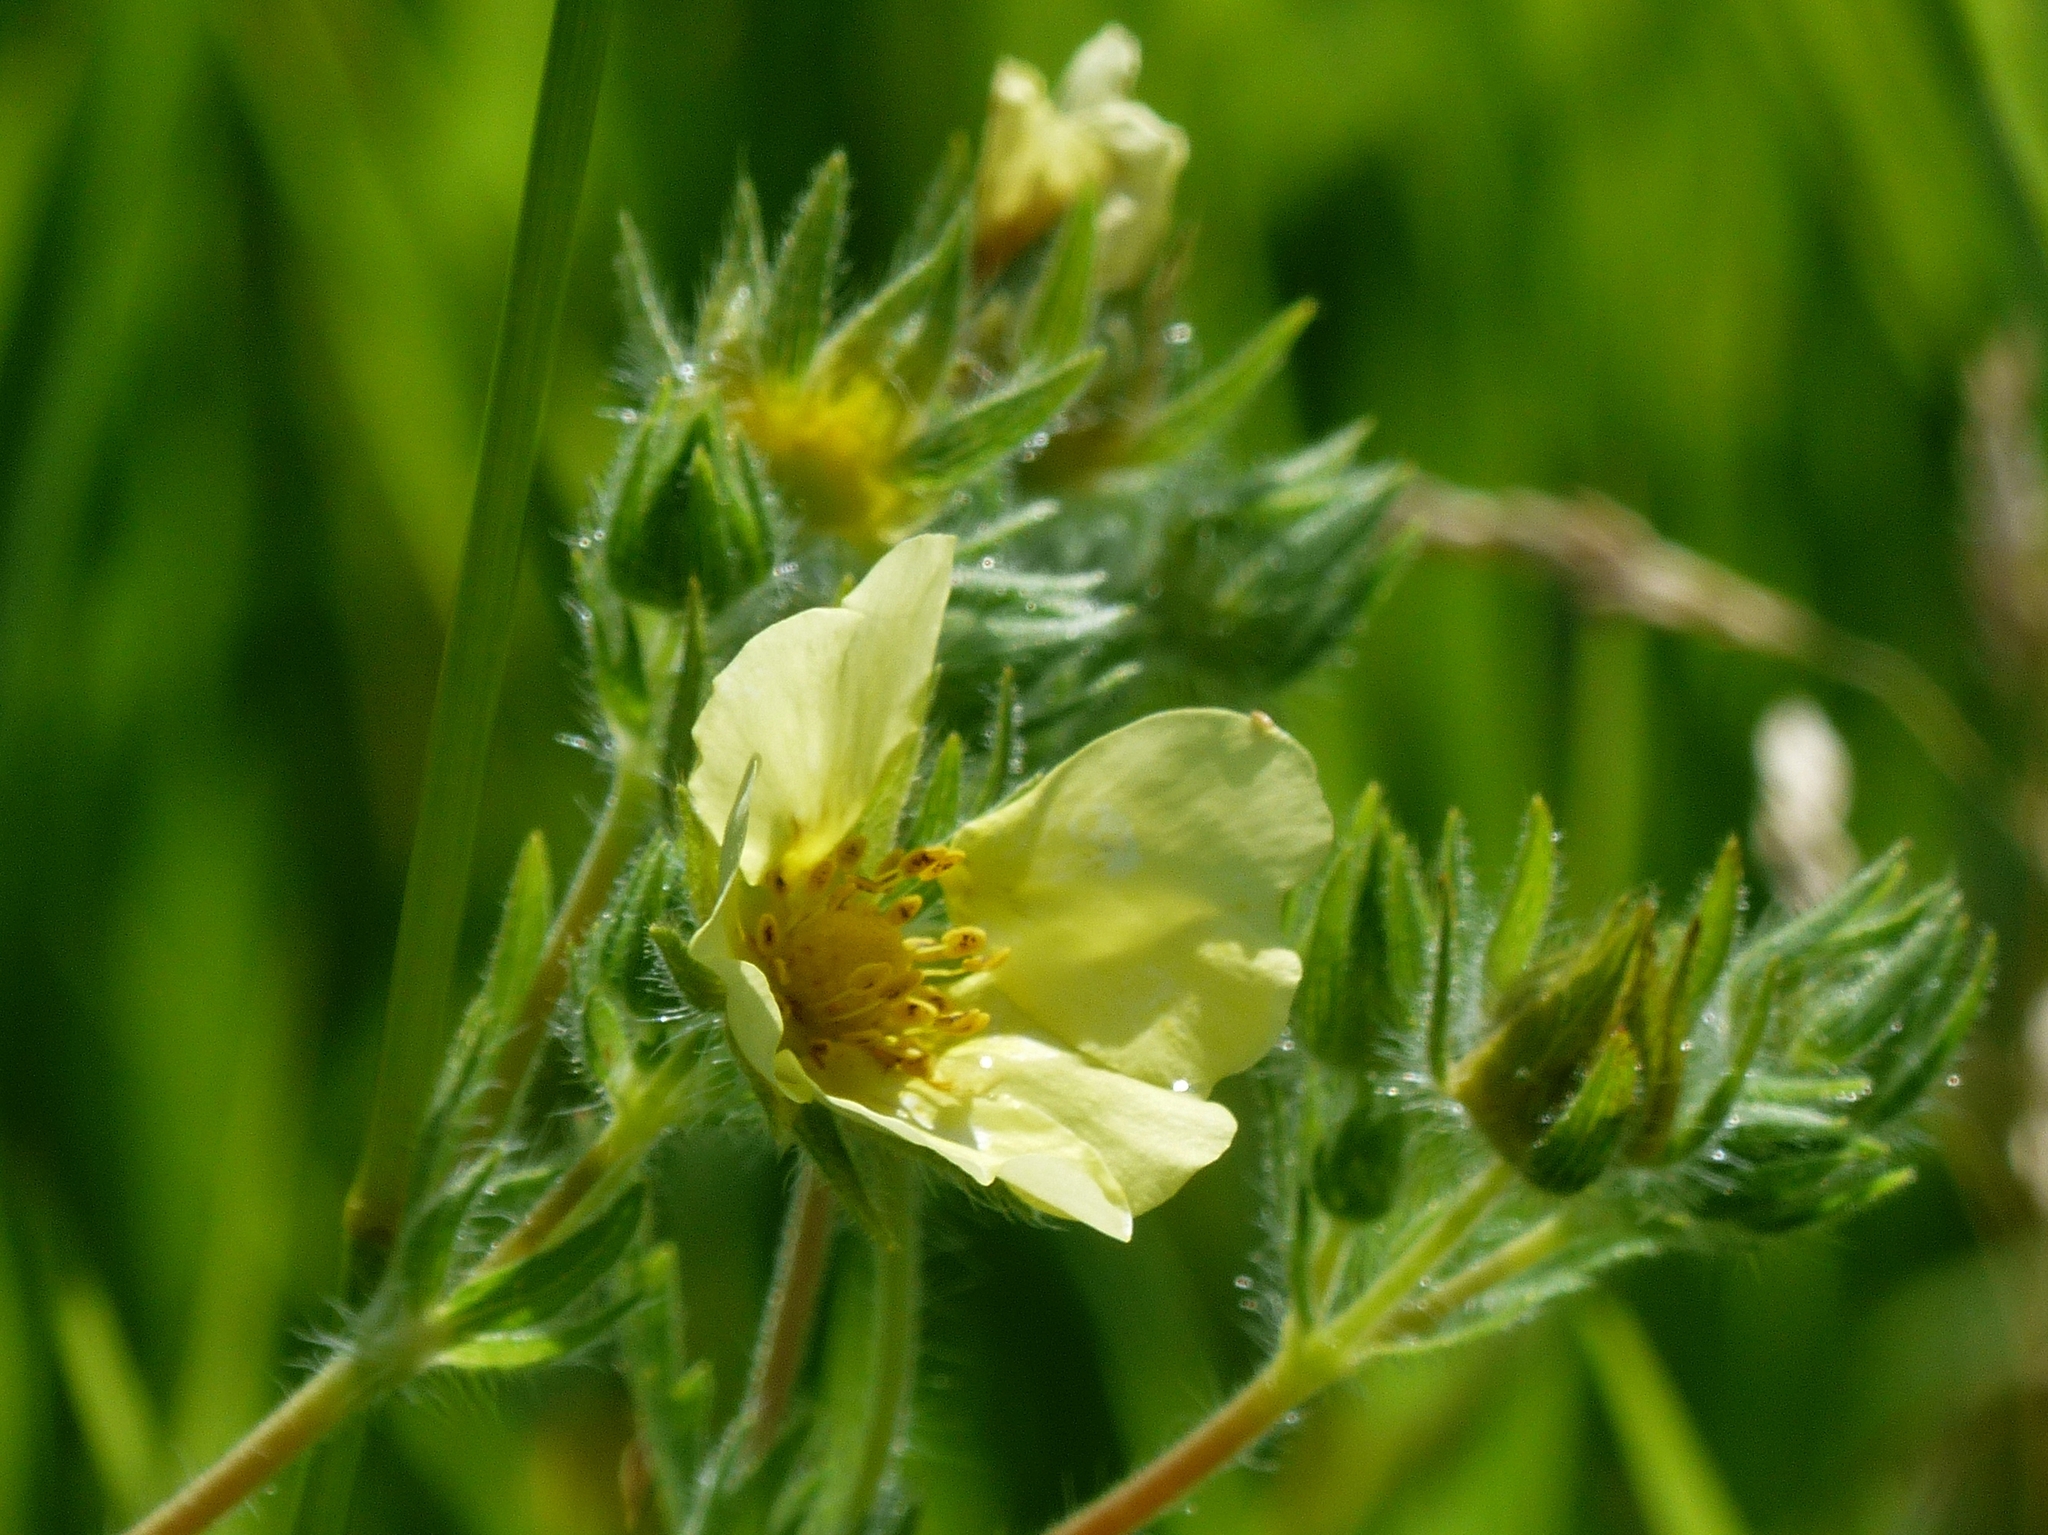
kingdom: Plantae
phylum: Tracheophyta
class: Magnoliopsida
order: Rosales
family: Rosaceae
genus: Potentilla
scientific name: Potentilla recta
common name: Sulphur cinquefoil
